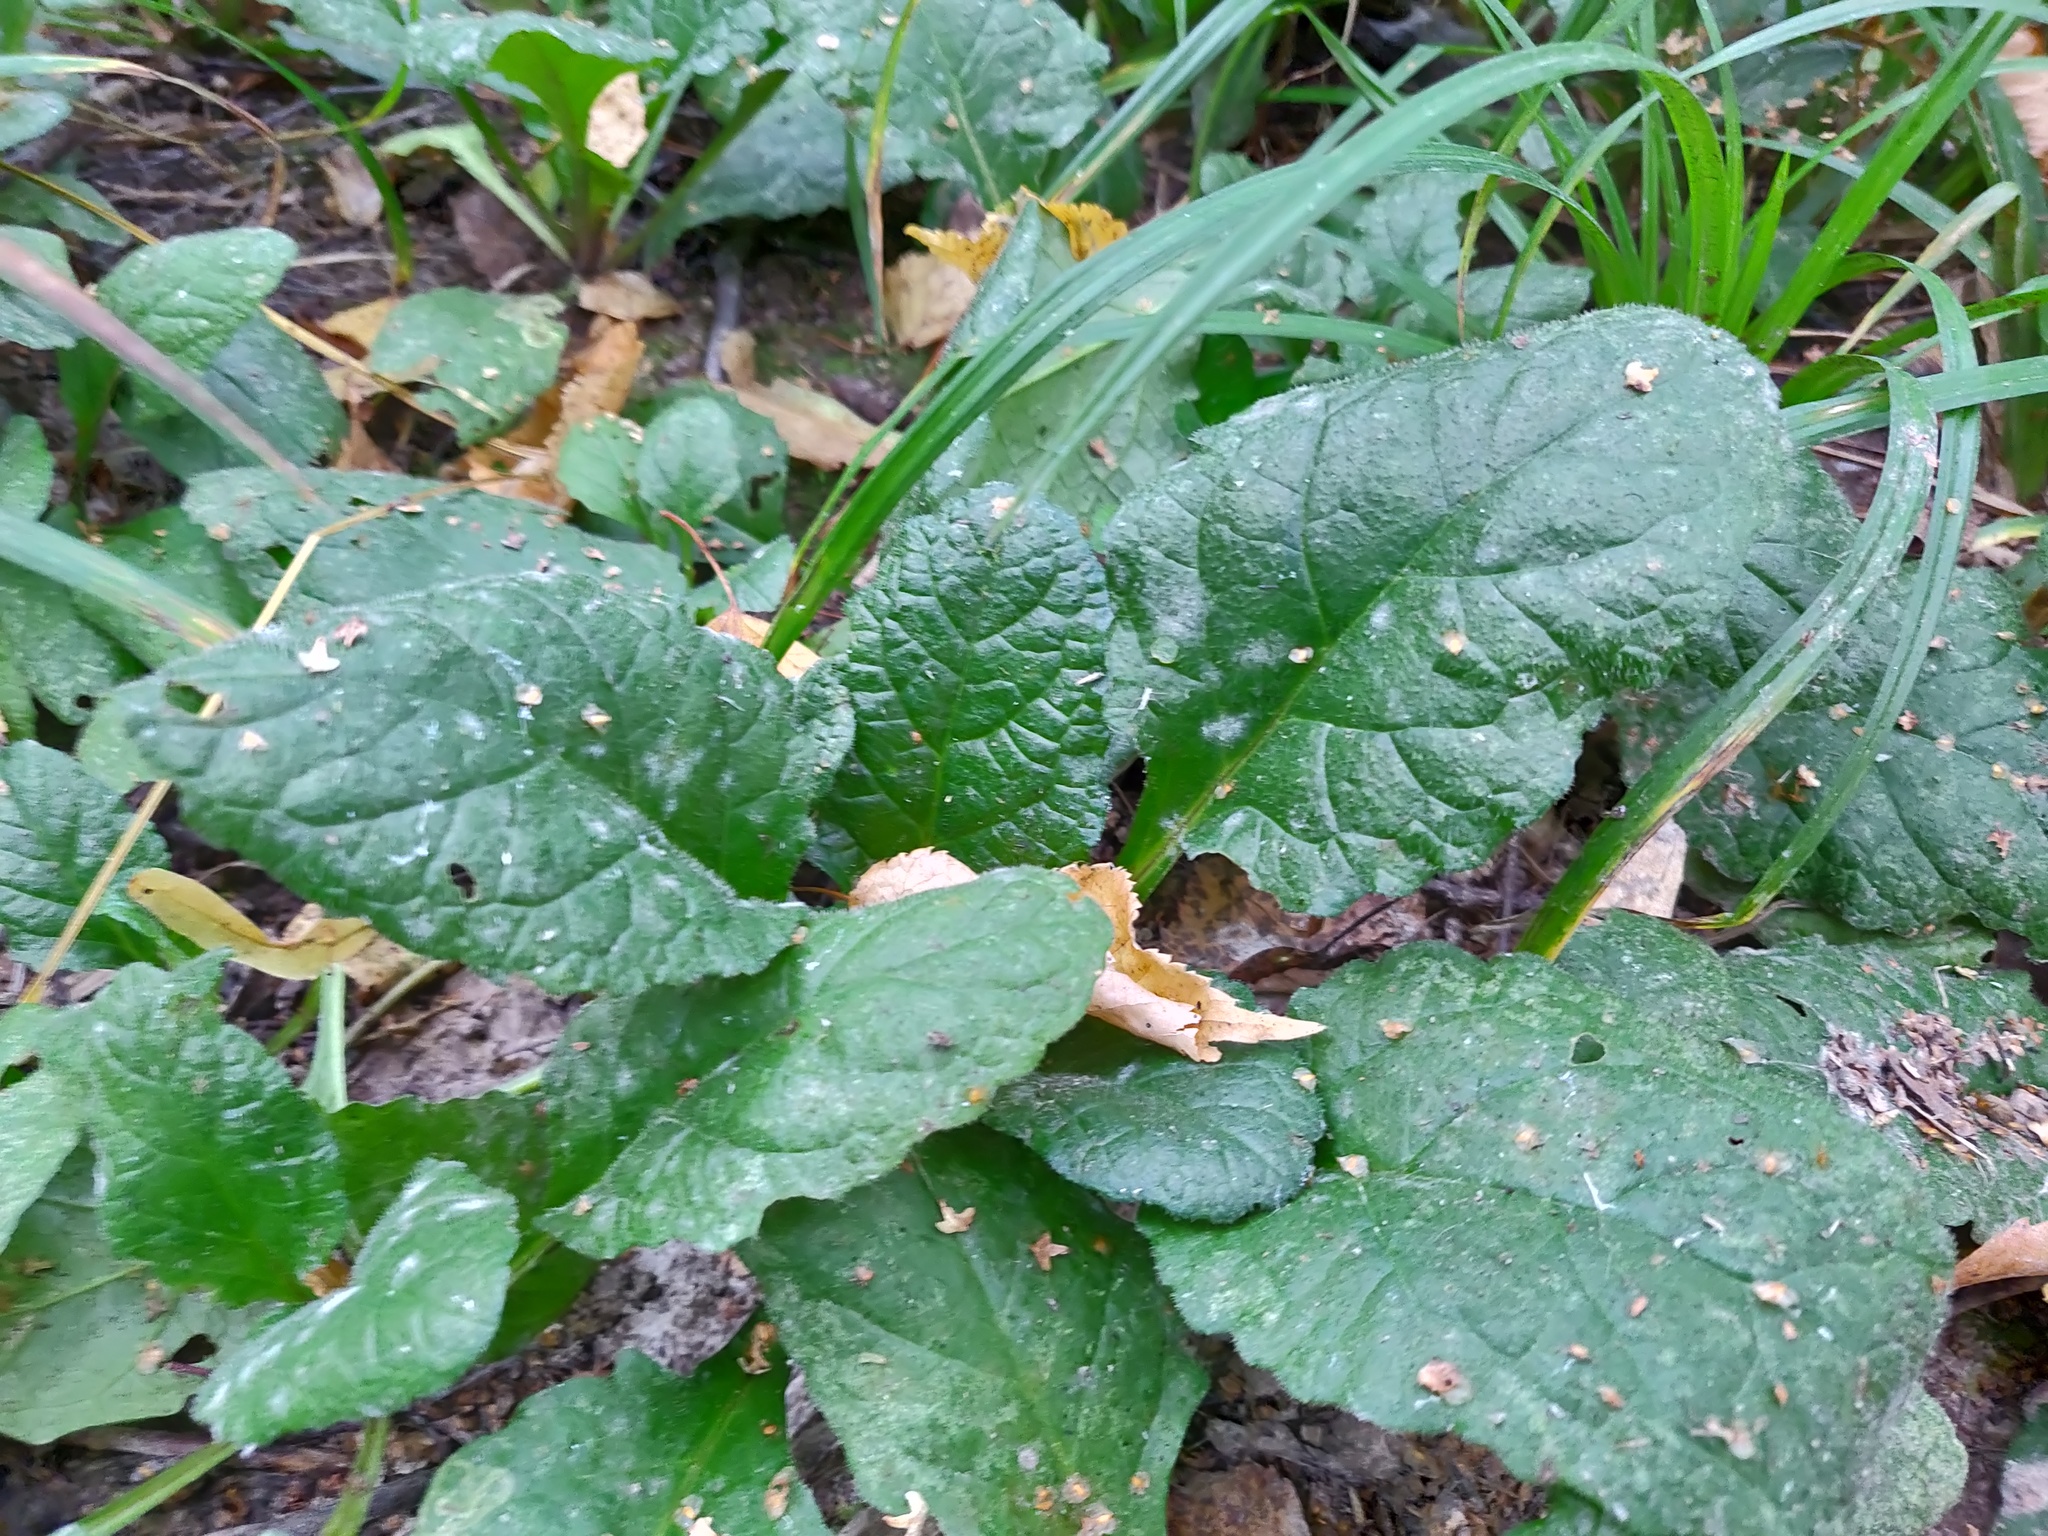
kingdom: Plantae
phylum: Tracheophyta
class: Magnoliopsida
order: Lamiales
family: Lamiaceae
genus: Ajuga
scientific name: Ajuga reptans
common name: Bugle
